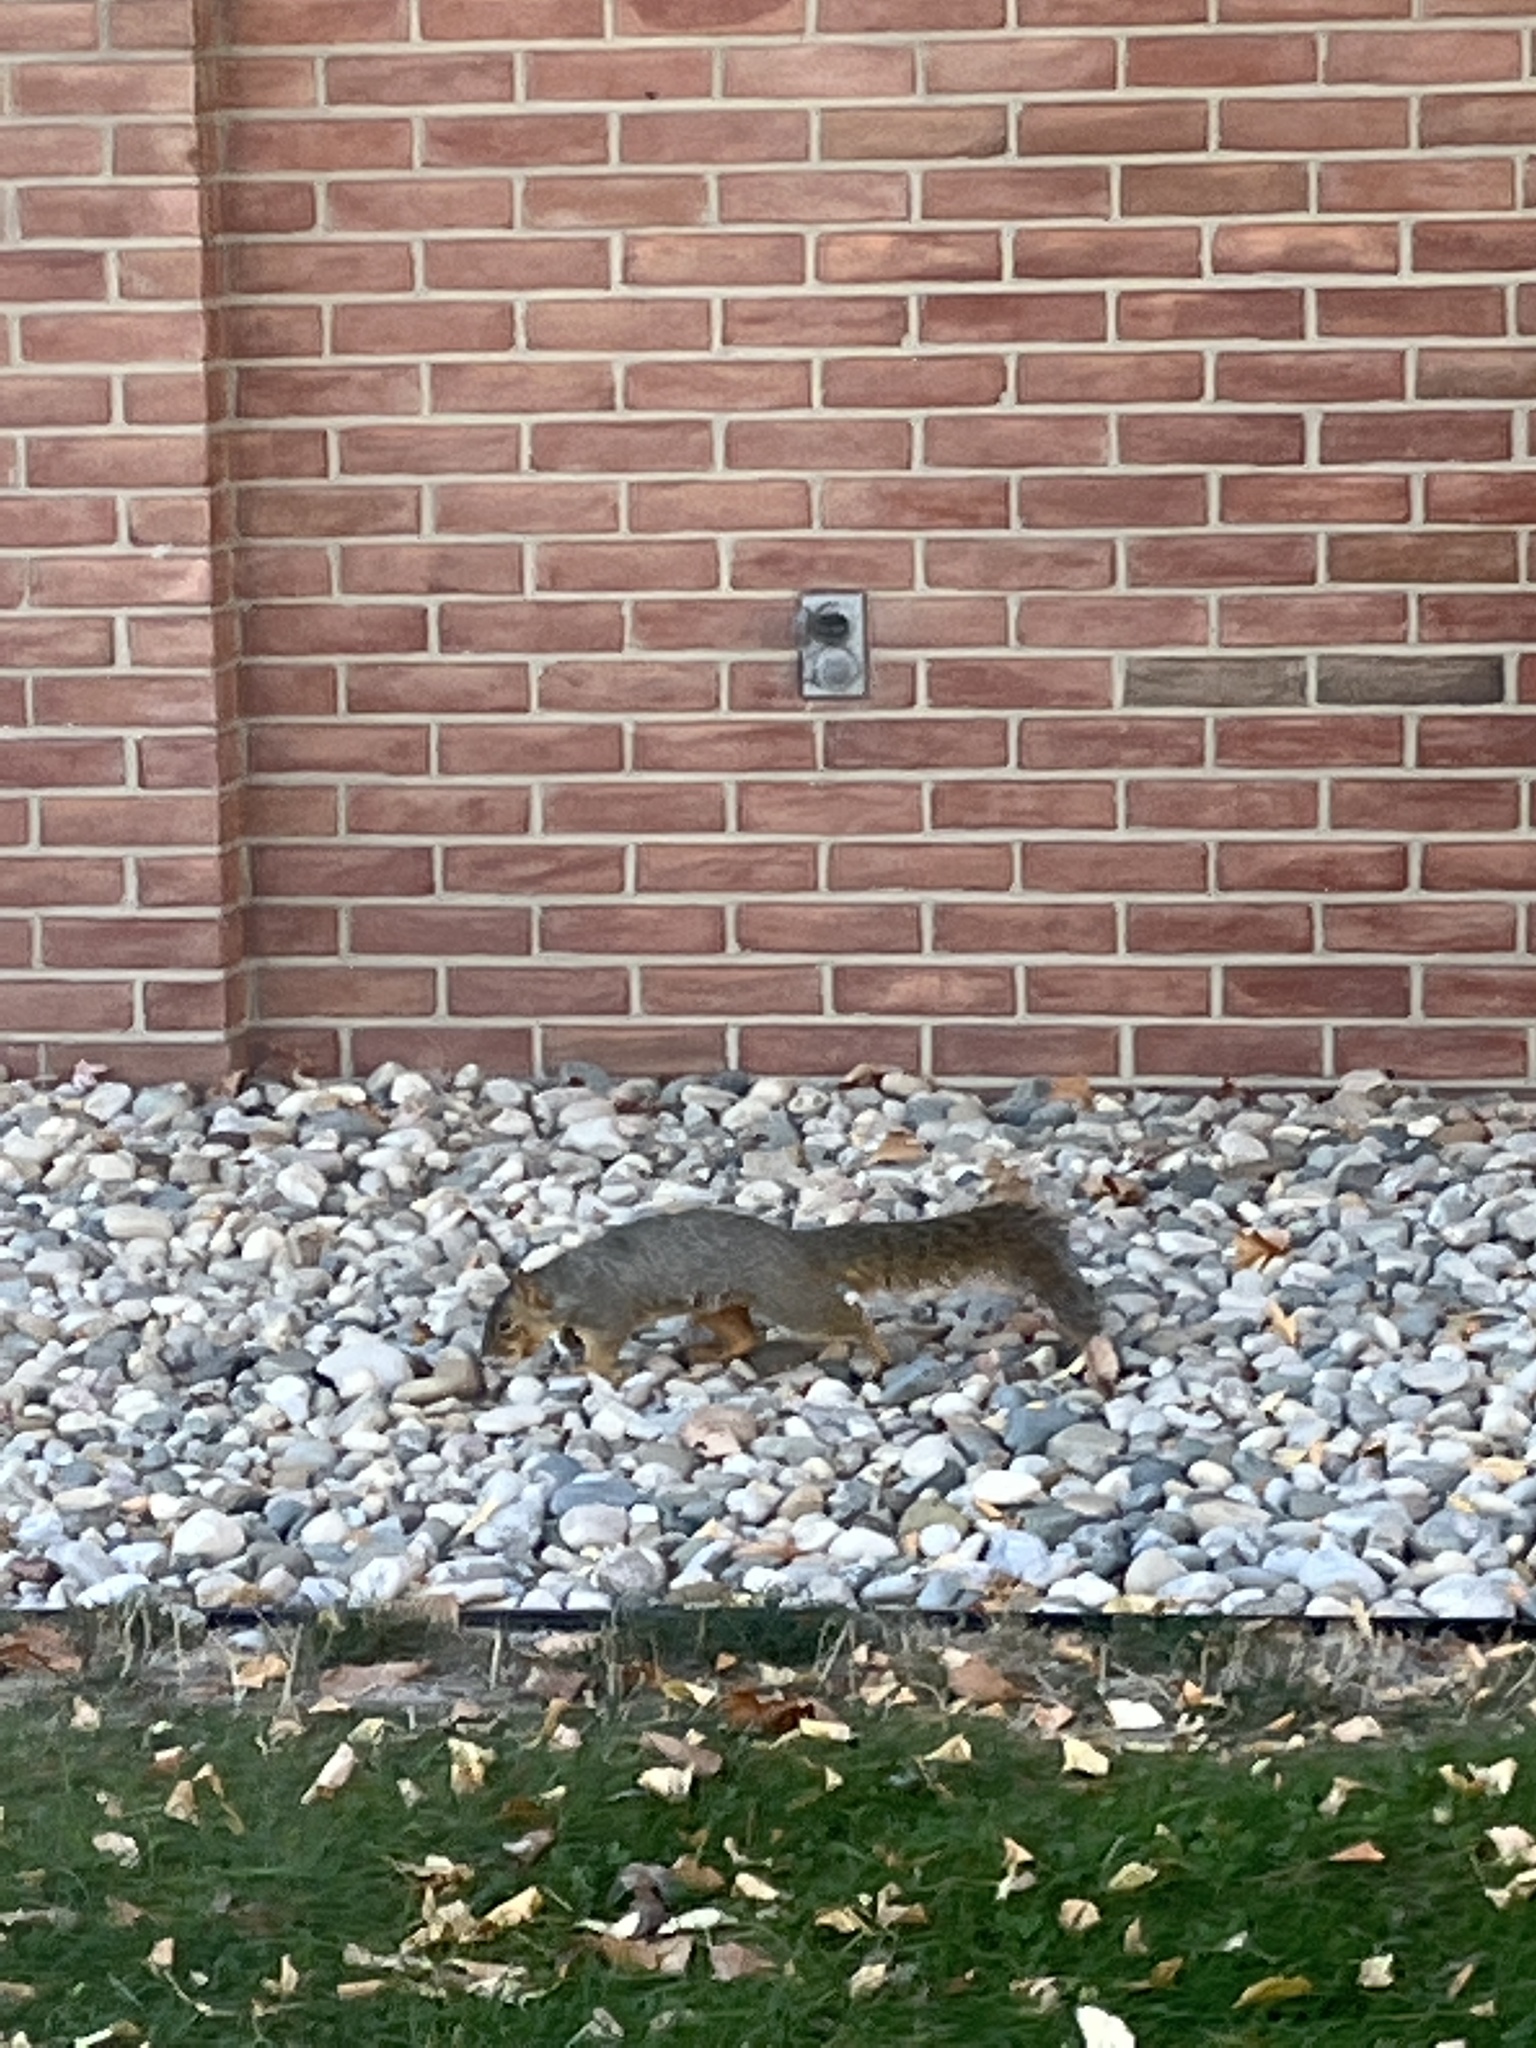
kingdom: Animalia
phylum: Chordata
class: Mammalia
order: Rodentia
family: Sciuridae
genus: Sciurus
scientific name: Sciurus niger
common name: Fox squirrel
